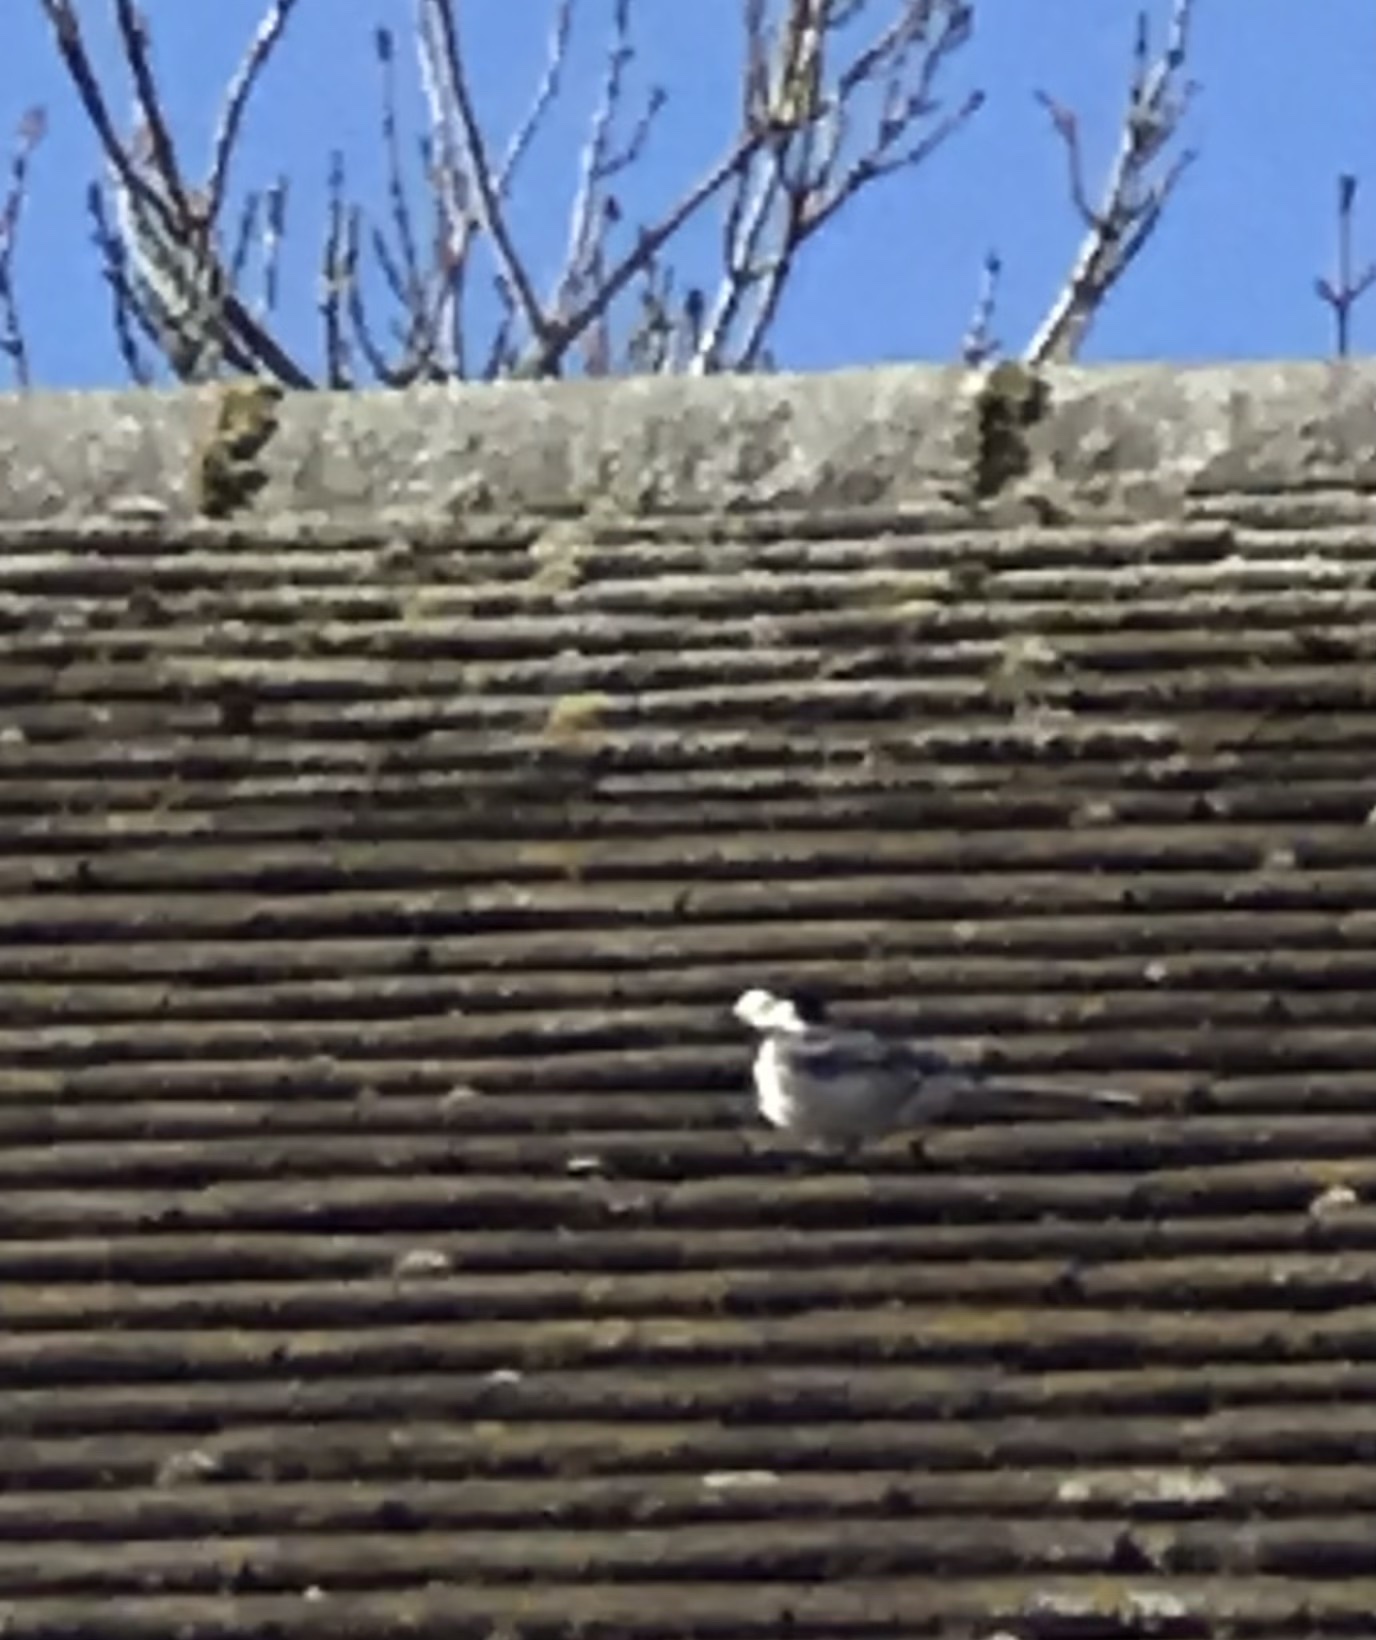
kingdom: Animalia
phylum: Chordata
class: Aves
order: Passeriformes
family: Motacillidae
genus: Motacilla
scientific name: Motacilla alba
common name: White wagtail
